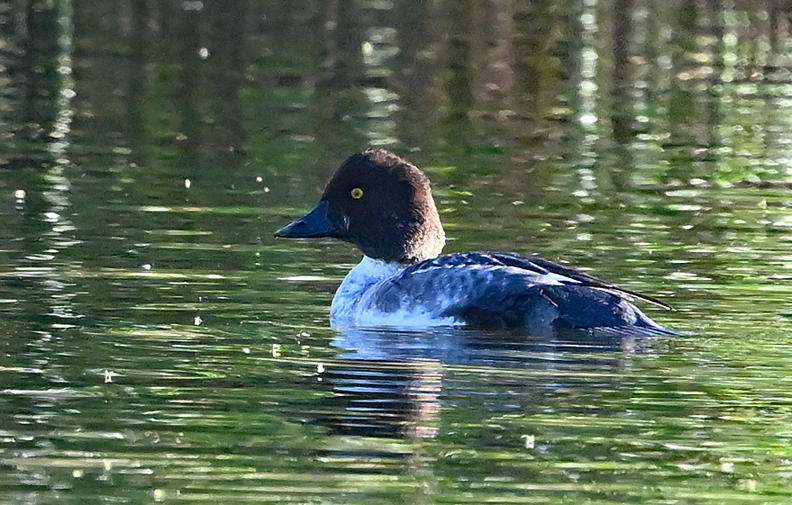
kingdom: Animalia
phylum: Chordata
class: Aves
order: Anseriformes
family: Anatidae
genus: Bucephala
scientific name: Bucephala clangula
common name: Common goldeneye
